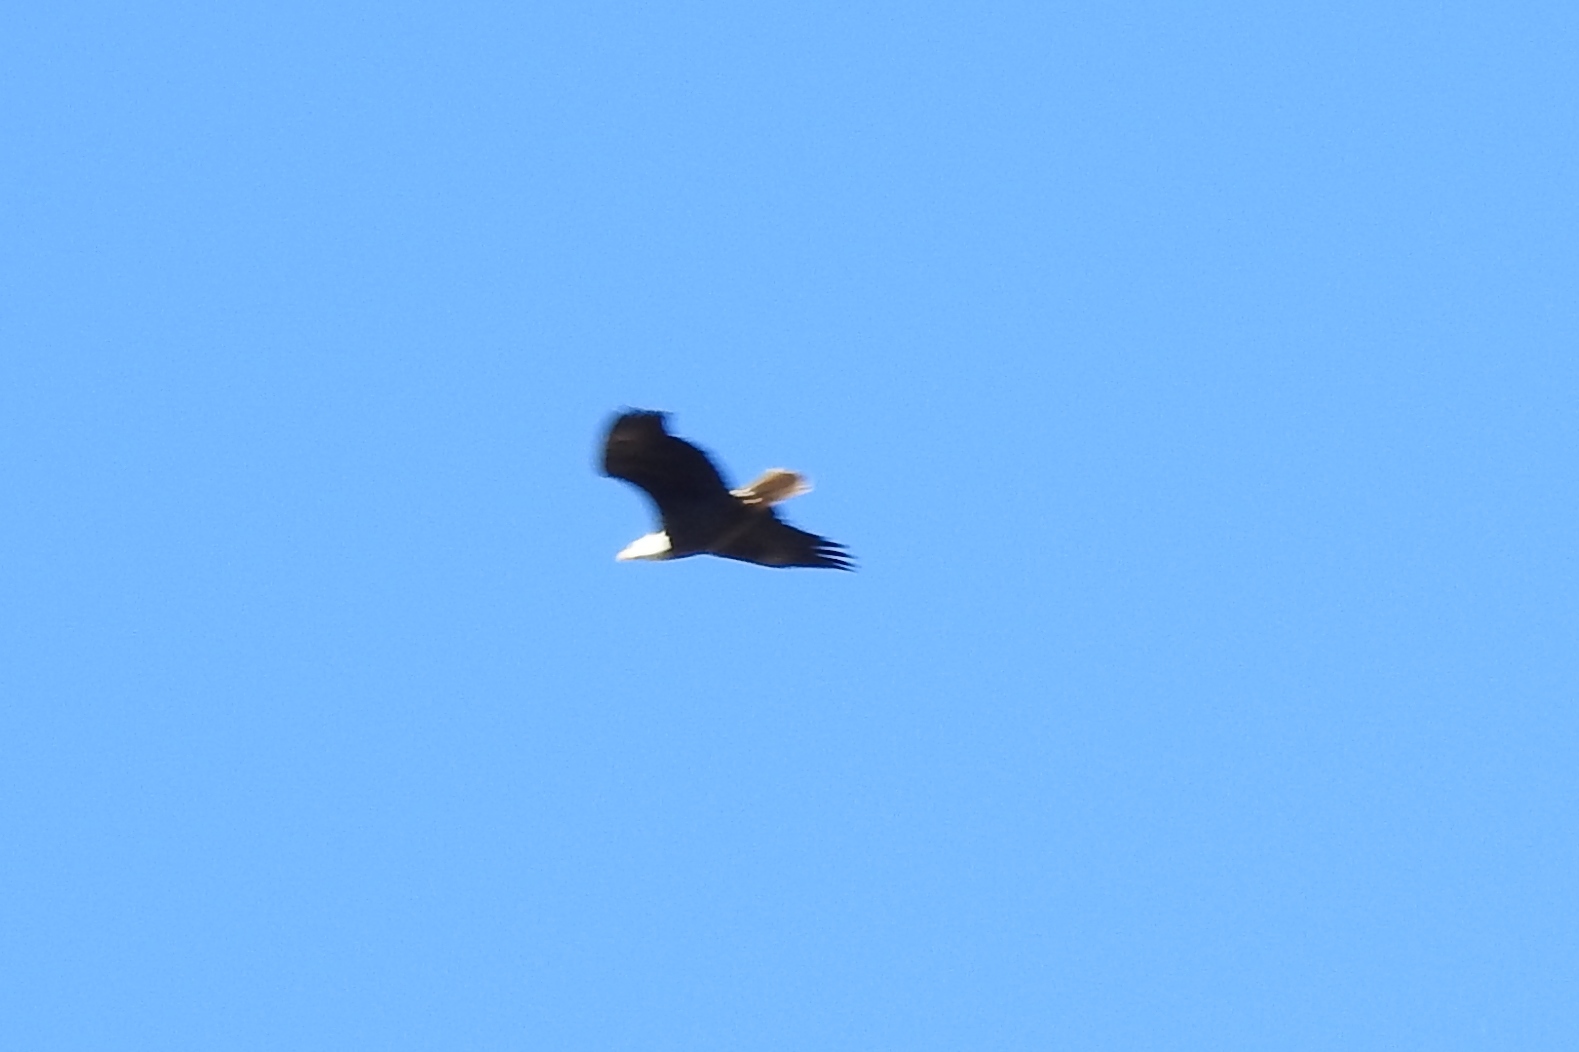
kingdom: Animalia
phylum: Chordata
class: Aves
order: Accipitriformes
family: Accipitridae
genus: Haliaeetus
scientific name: Haliaeetus leucocephalus
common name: Bald eagle
